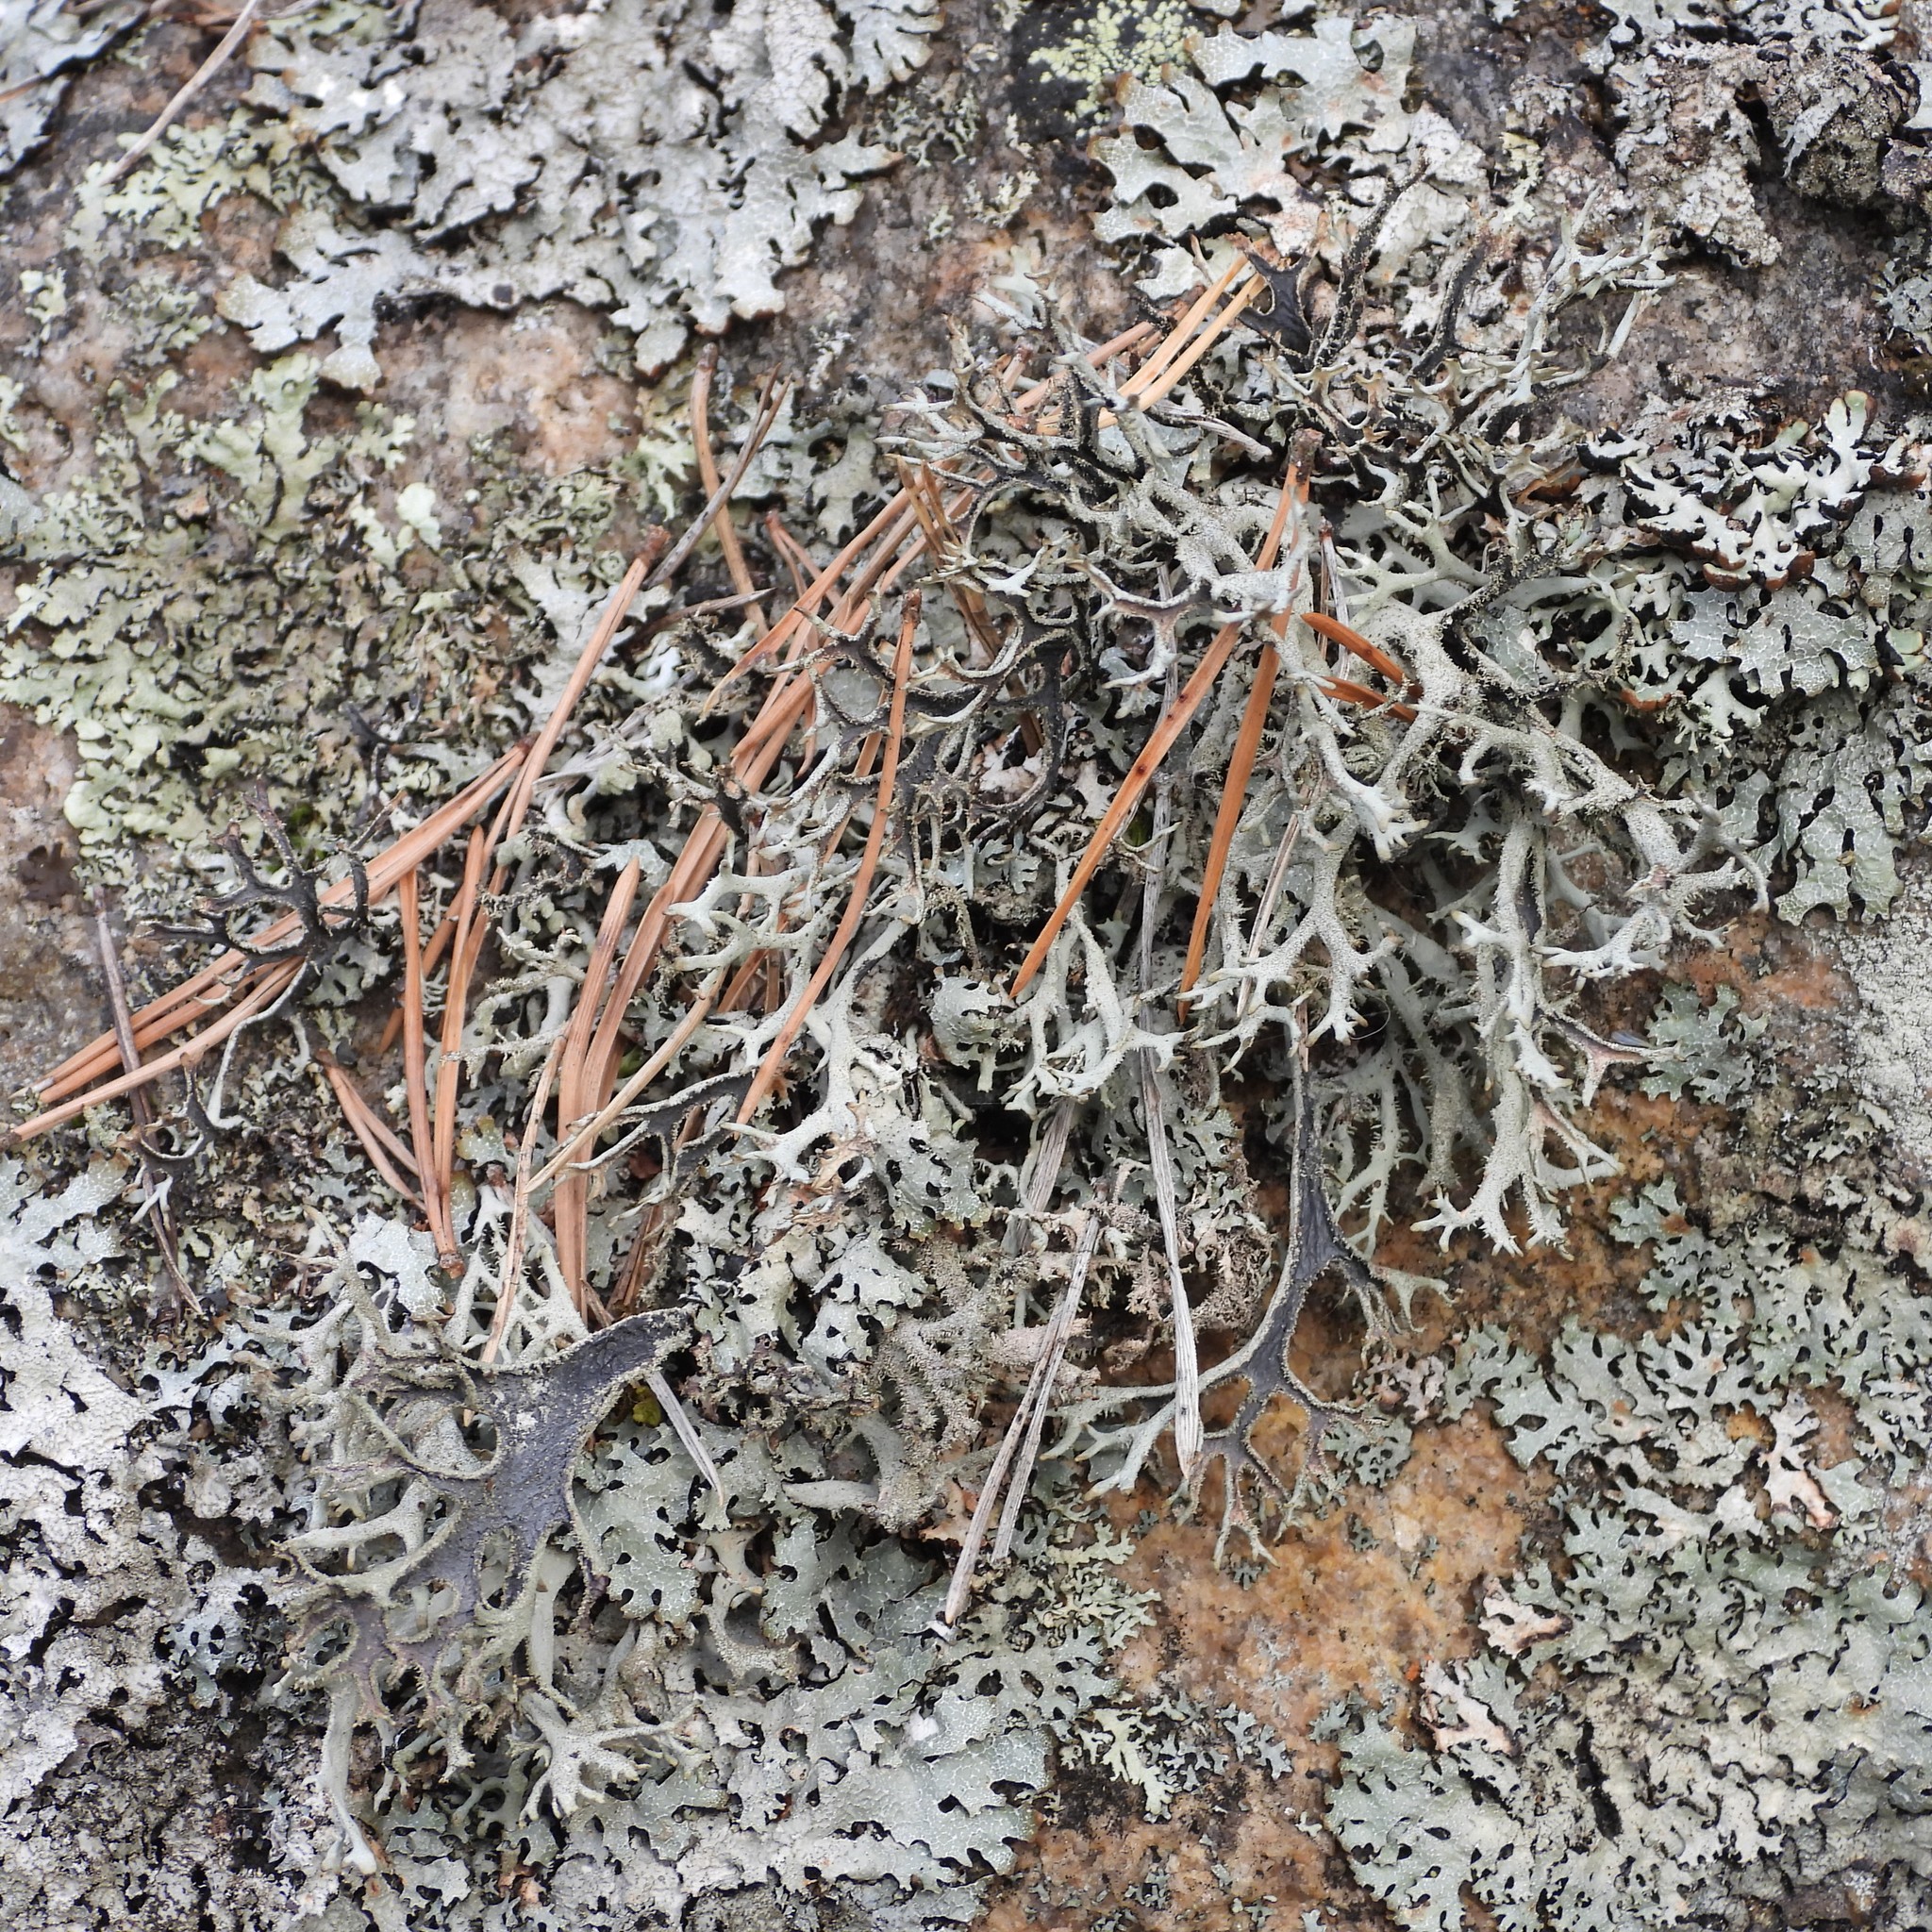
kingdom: Fungi
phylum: Ascomycota
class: Lecanoromycetes
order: Lecanorales
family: Parmeliaceae
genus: Pseudevernia
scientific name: Pseudevernia furfuracea
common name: Tree moss
